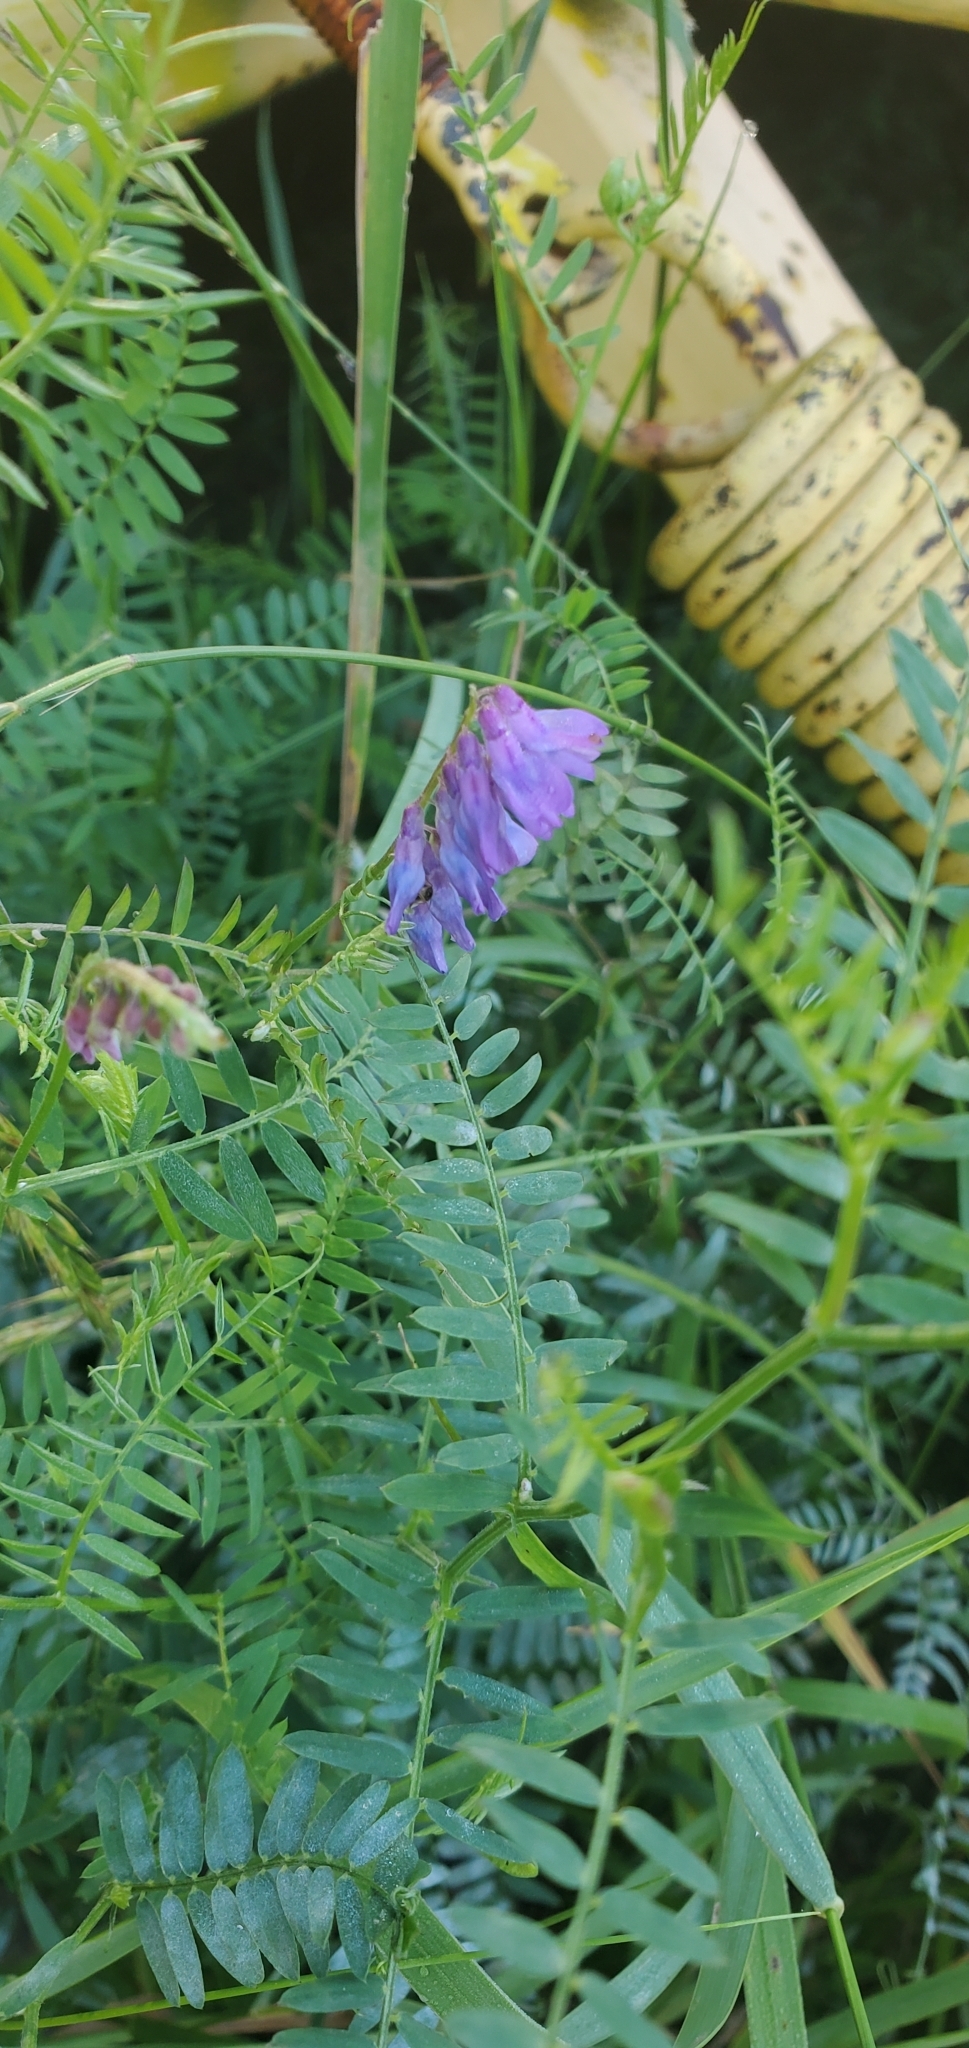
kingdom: Plantae
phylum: Tracheophyta
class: Magnoliopsida
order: Fabales
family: Fabaceae
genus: Vicia
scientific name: Vicia cracca
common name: Bird vetch
